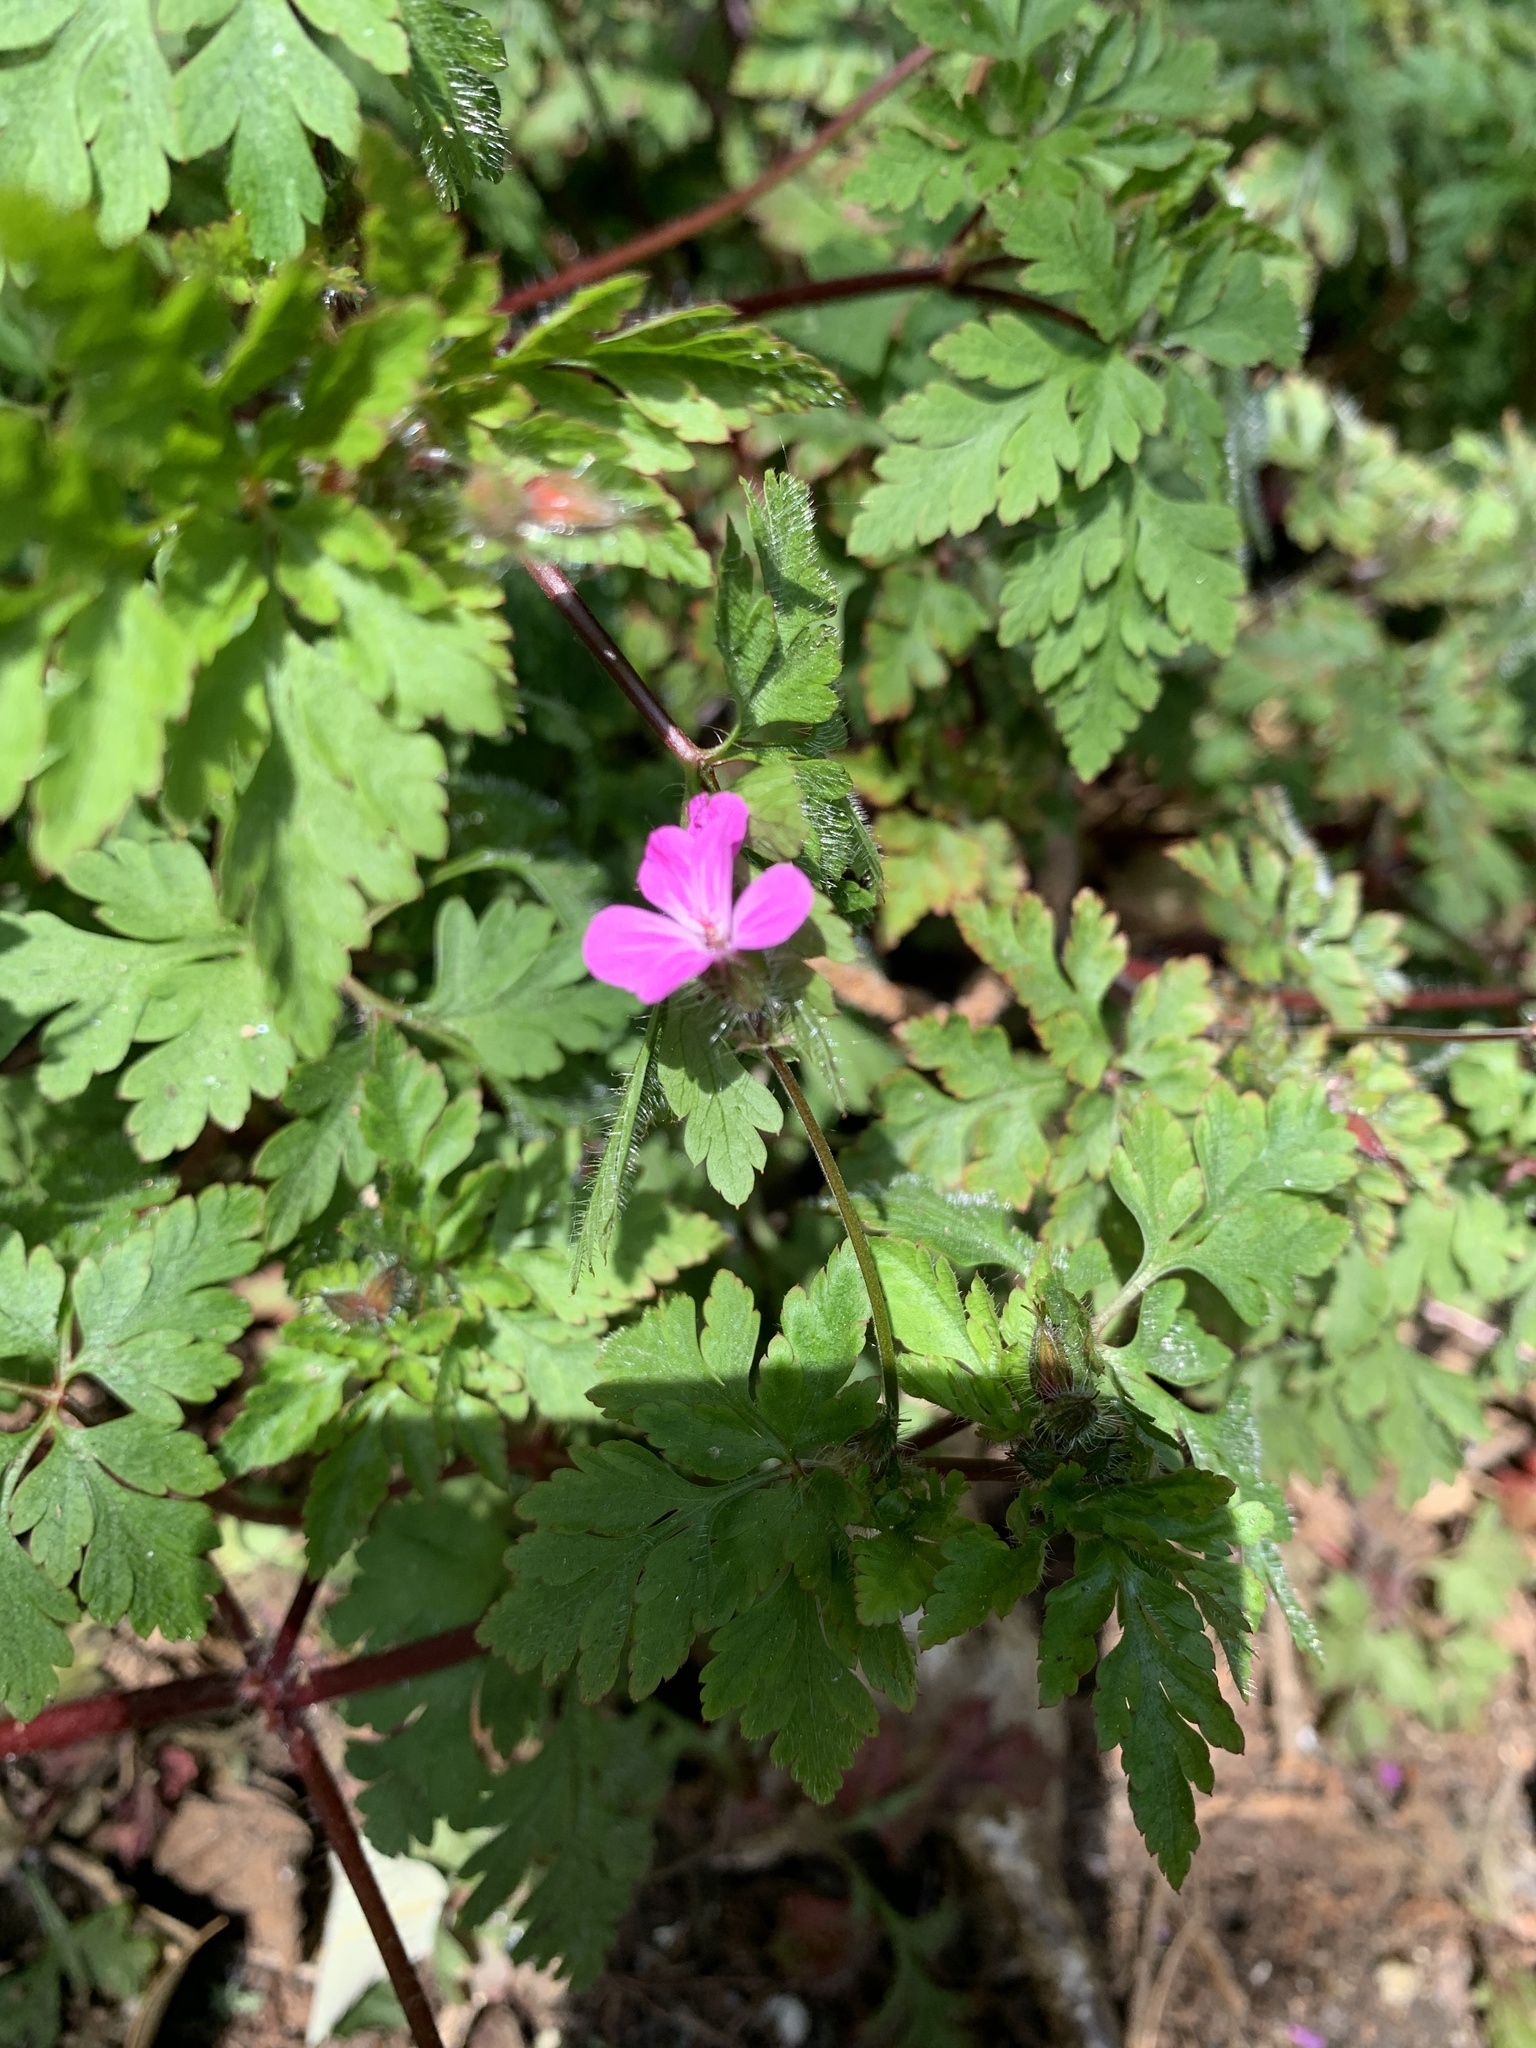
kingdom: Plantae
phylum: Tracheophyta
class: Magnoliopsida
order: Geraniales
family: Geraniaceae
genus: Geranium
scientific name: Geranium robertianum
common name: Herb-robert
